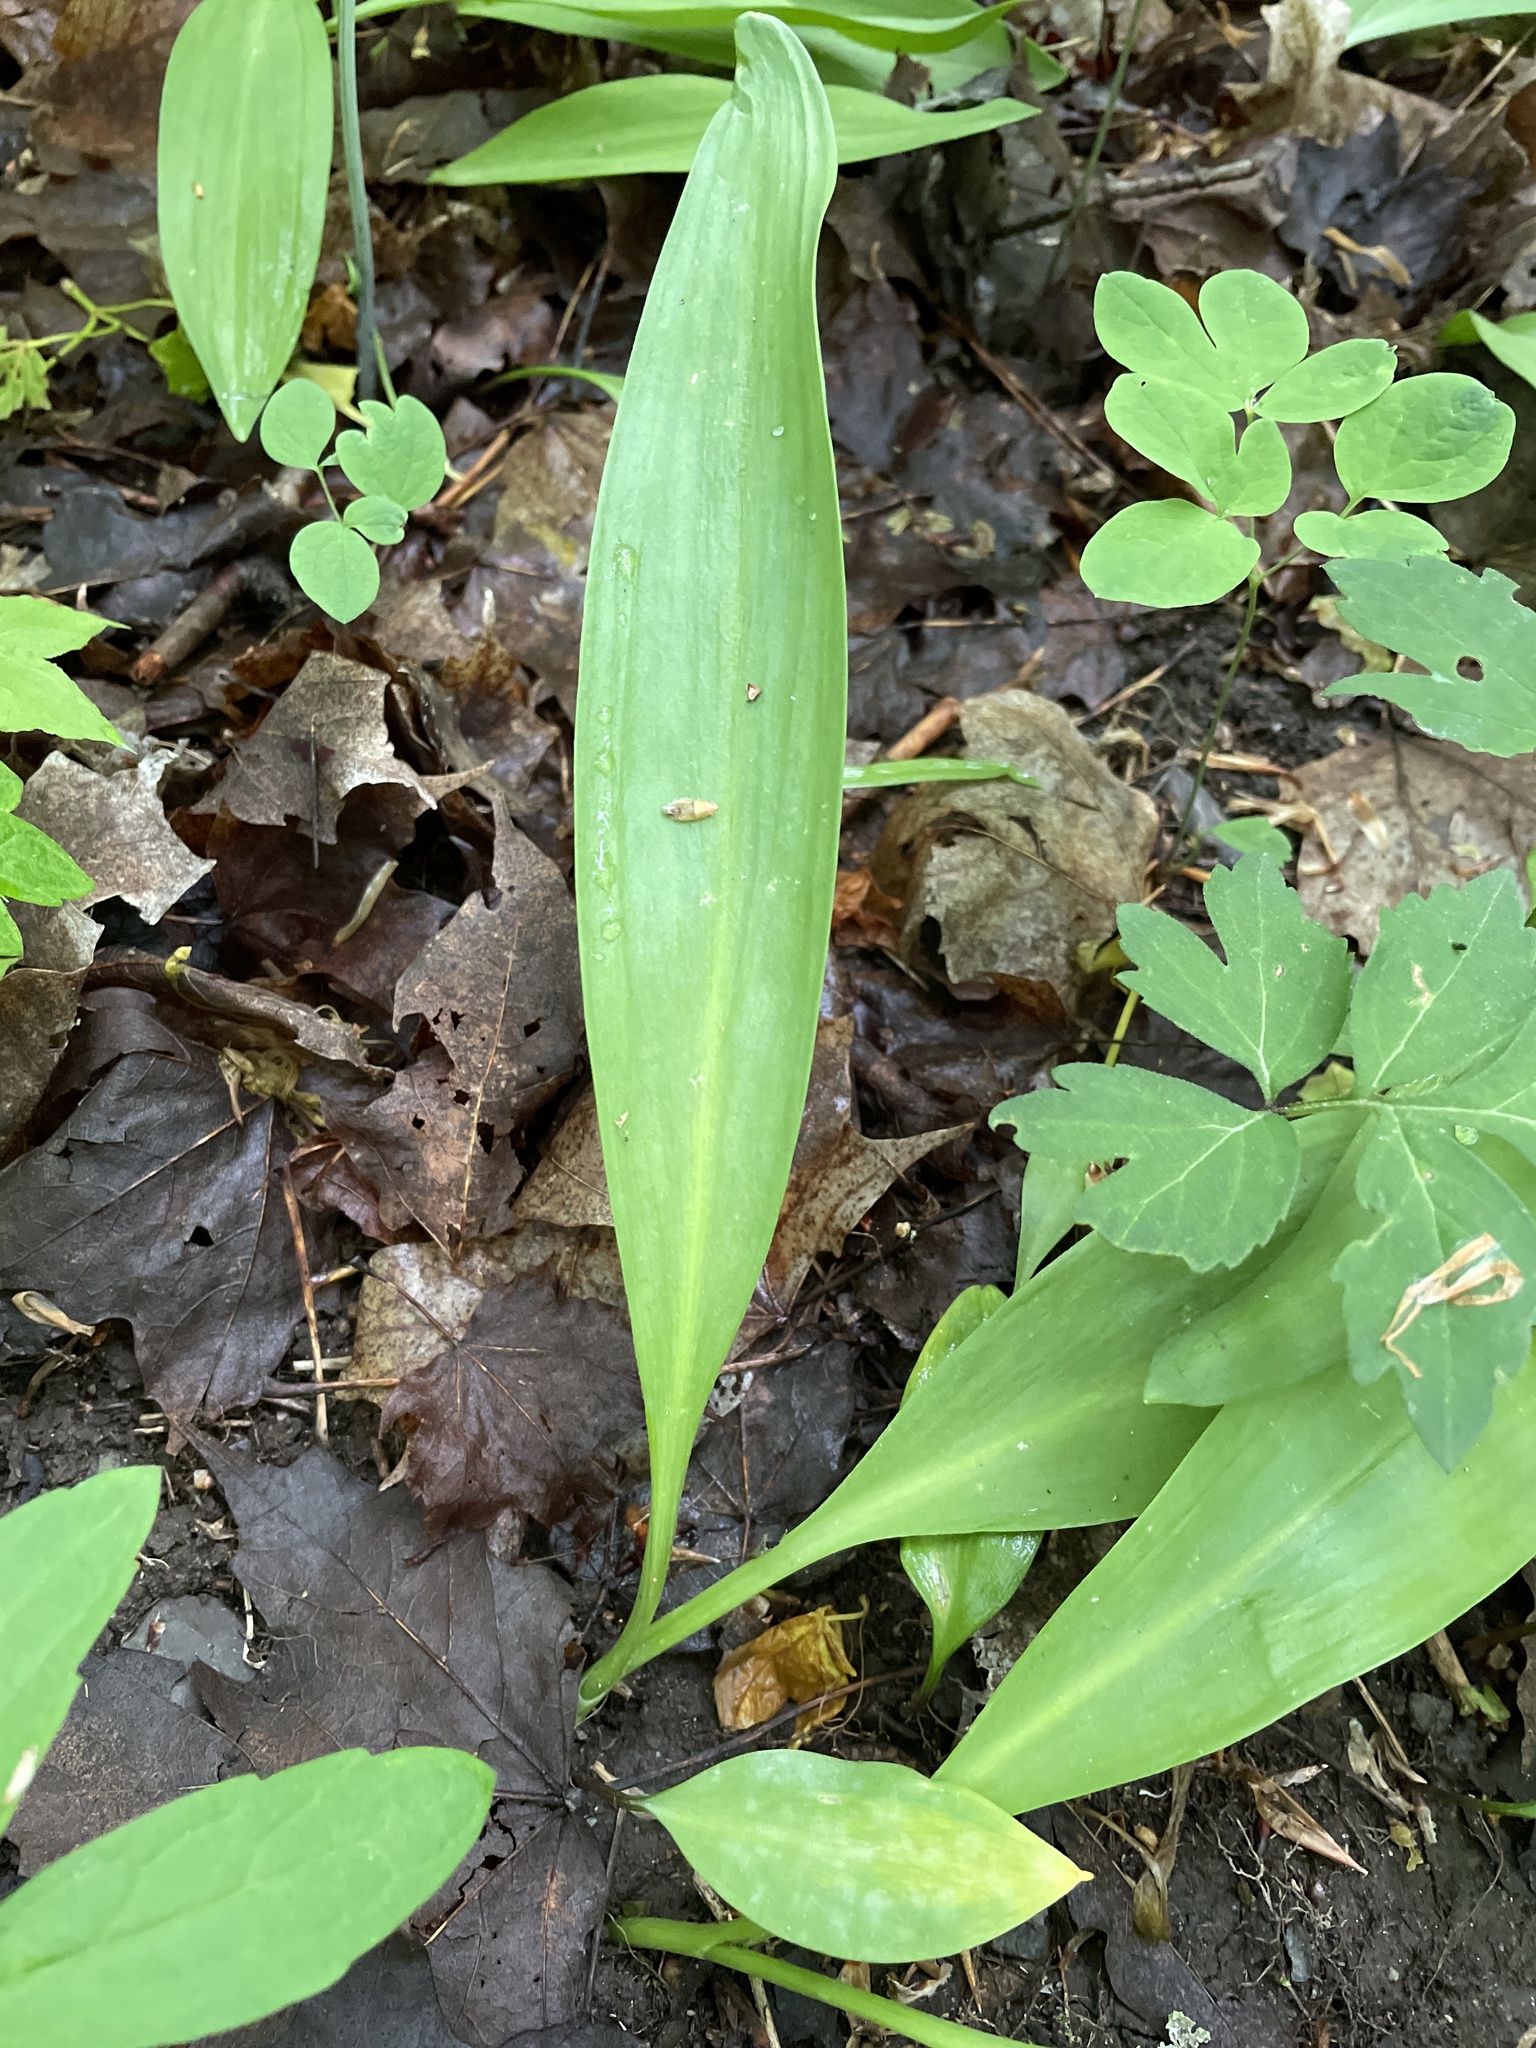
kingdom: Plantae
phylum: Tracheophyta
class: Liliopsida
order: Asparagales
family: Amaryllidaceae
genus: Allium
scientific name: Allium tricoccum
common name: Ramp
